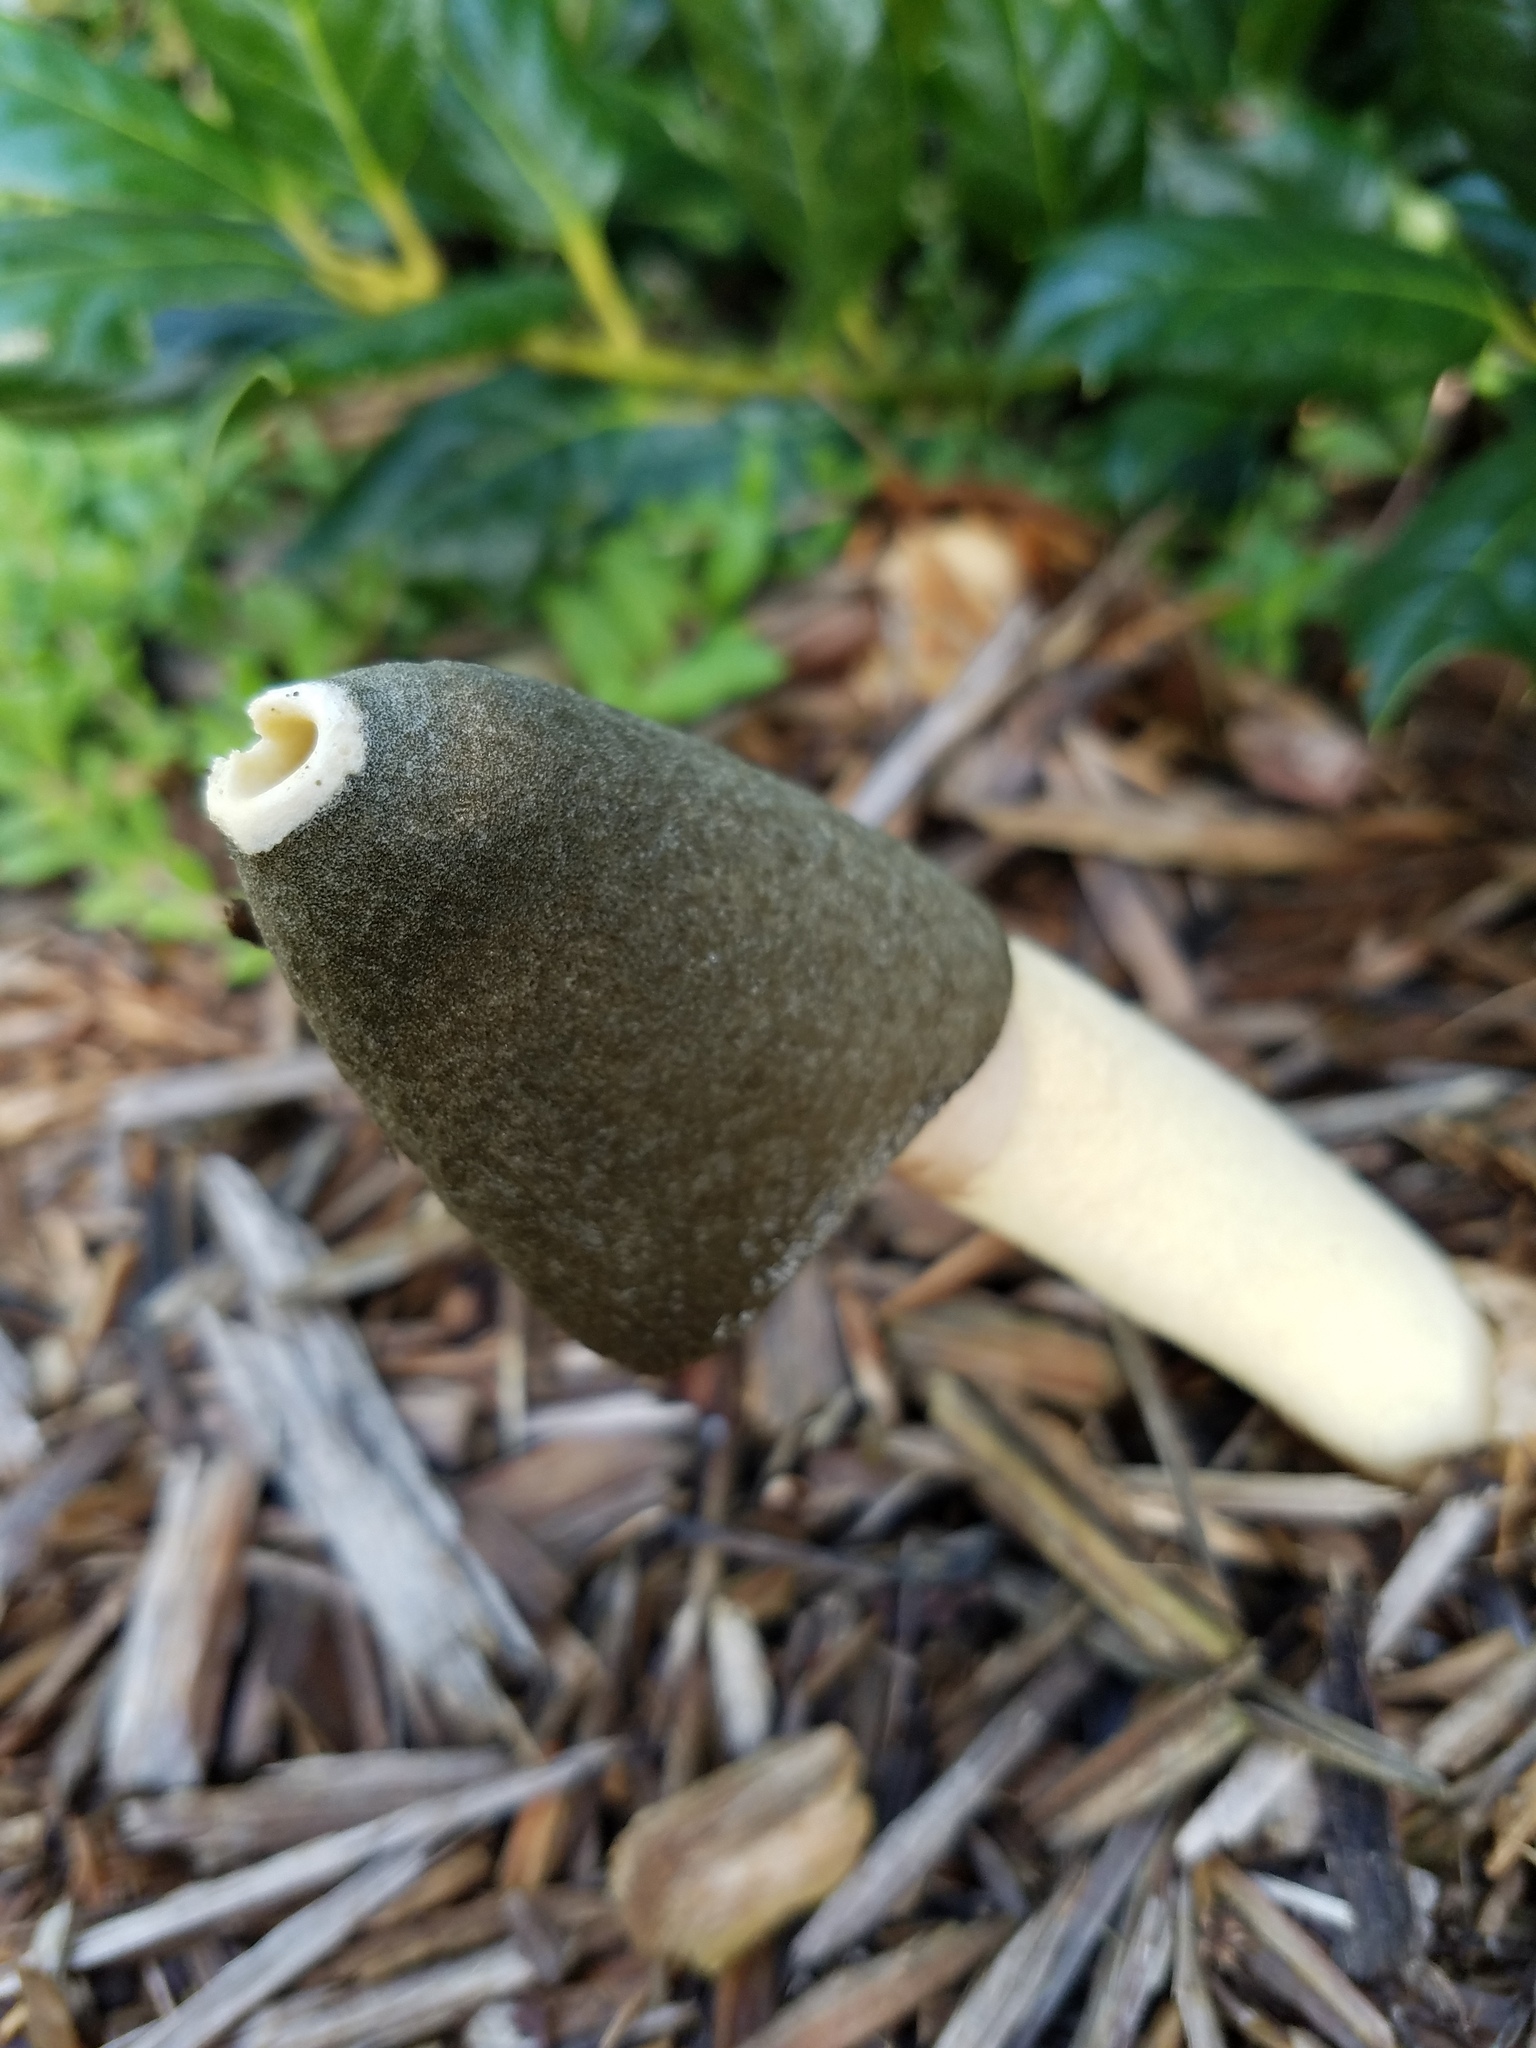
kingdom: Fungi
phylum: Basidiomycota
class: Agaricomycetes
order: Phallales
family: Phallaceae
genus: Phallus
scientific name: Phallus ravenelii
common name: Ravenel's stinkhorn
